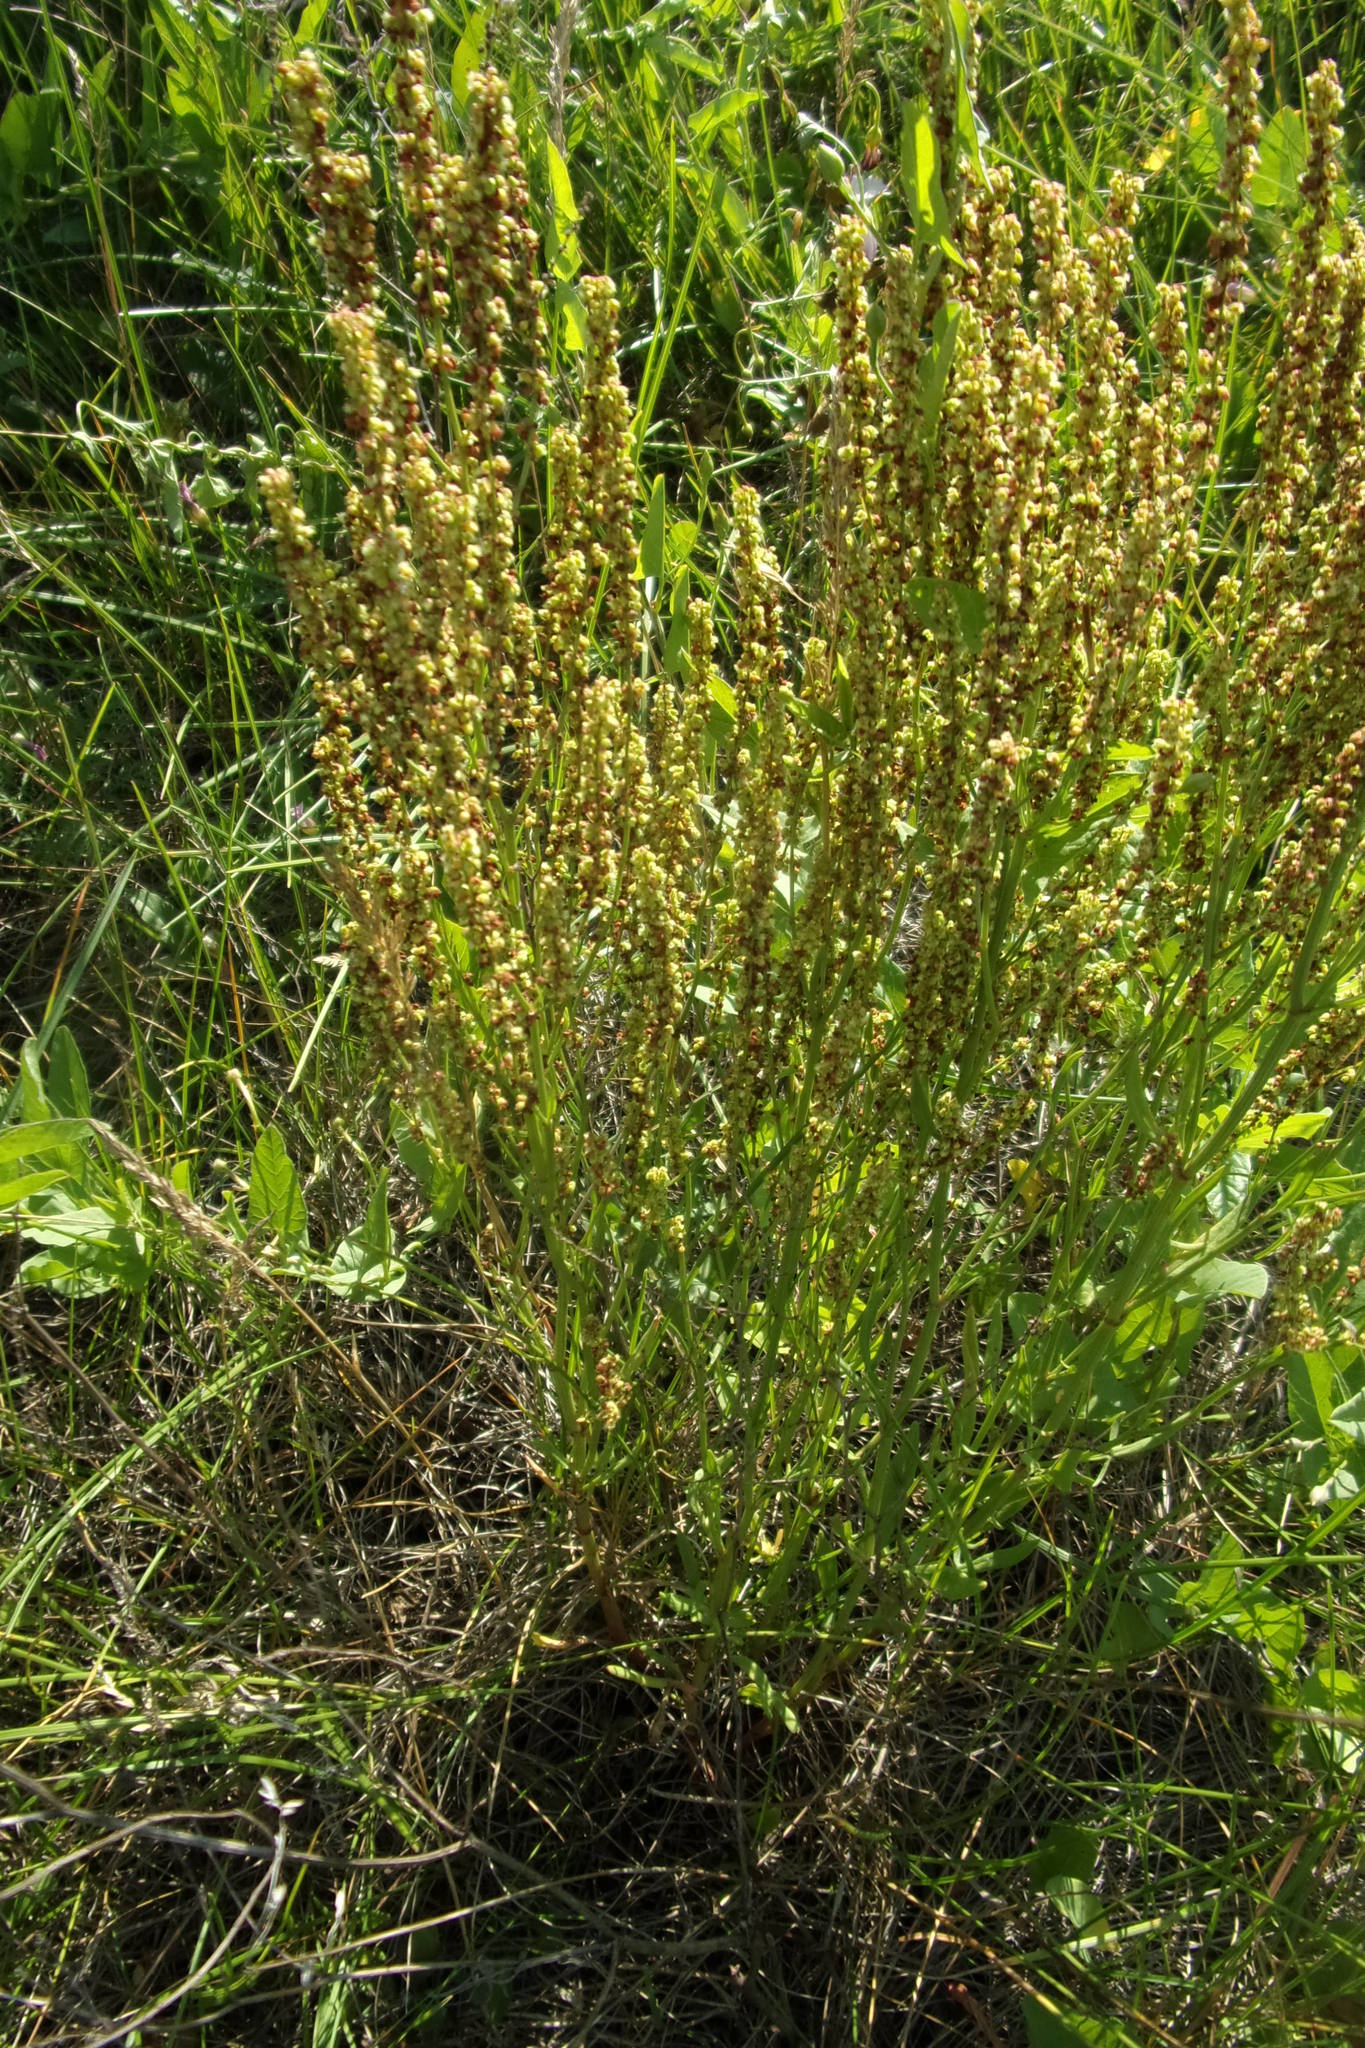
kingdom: Plantae
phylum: Tracheophyta
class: Magnoliopsida
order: Caryophyllales
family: Polygonaceae
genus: Rumex
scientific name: Rumex acetosella
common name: Common sheep sorrel
